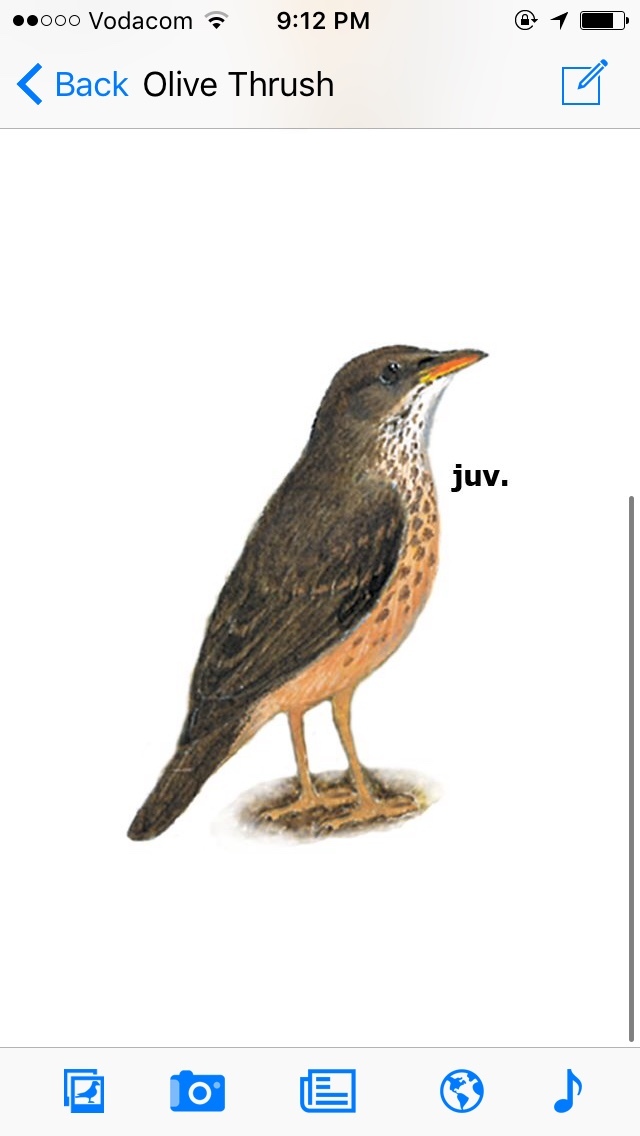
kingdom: Animalia
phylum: Chordata
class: Aves
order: Passeriformes
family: Turdidae
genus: Psophocichla
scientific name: Psophocichla litsitsirupa
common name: Groundscraper thrush
